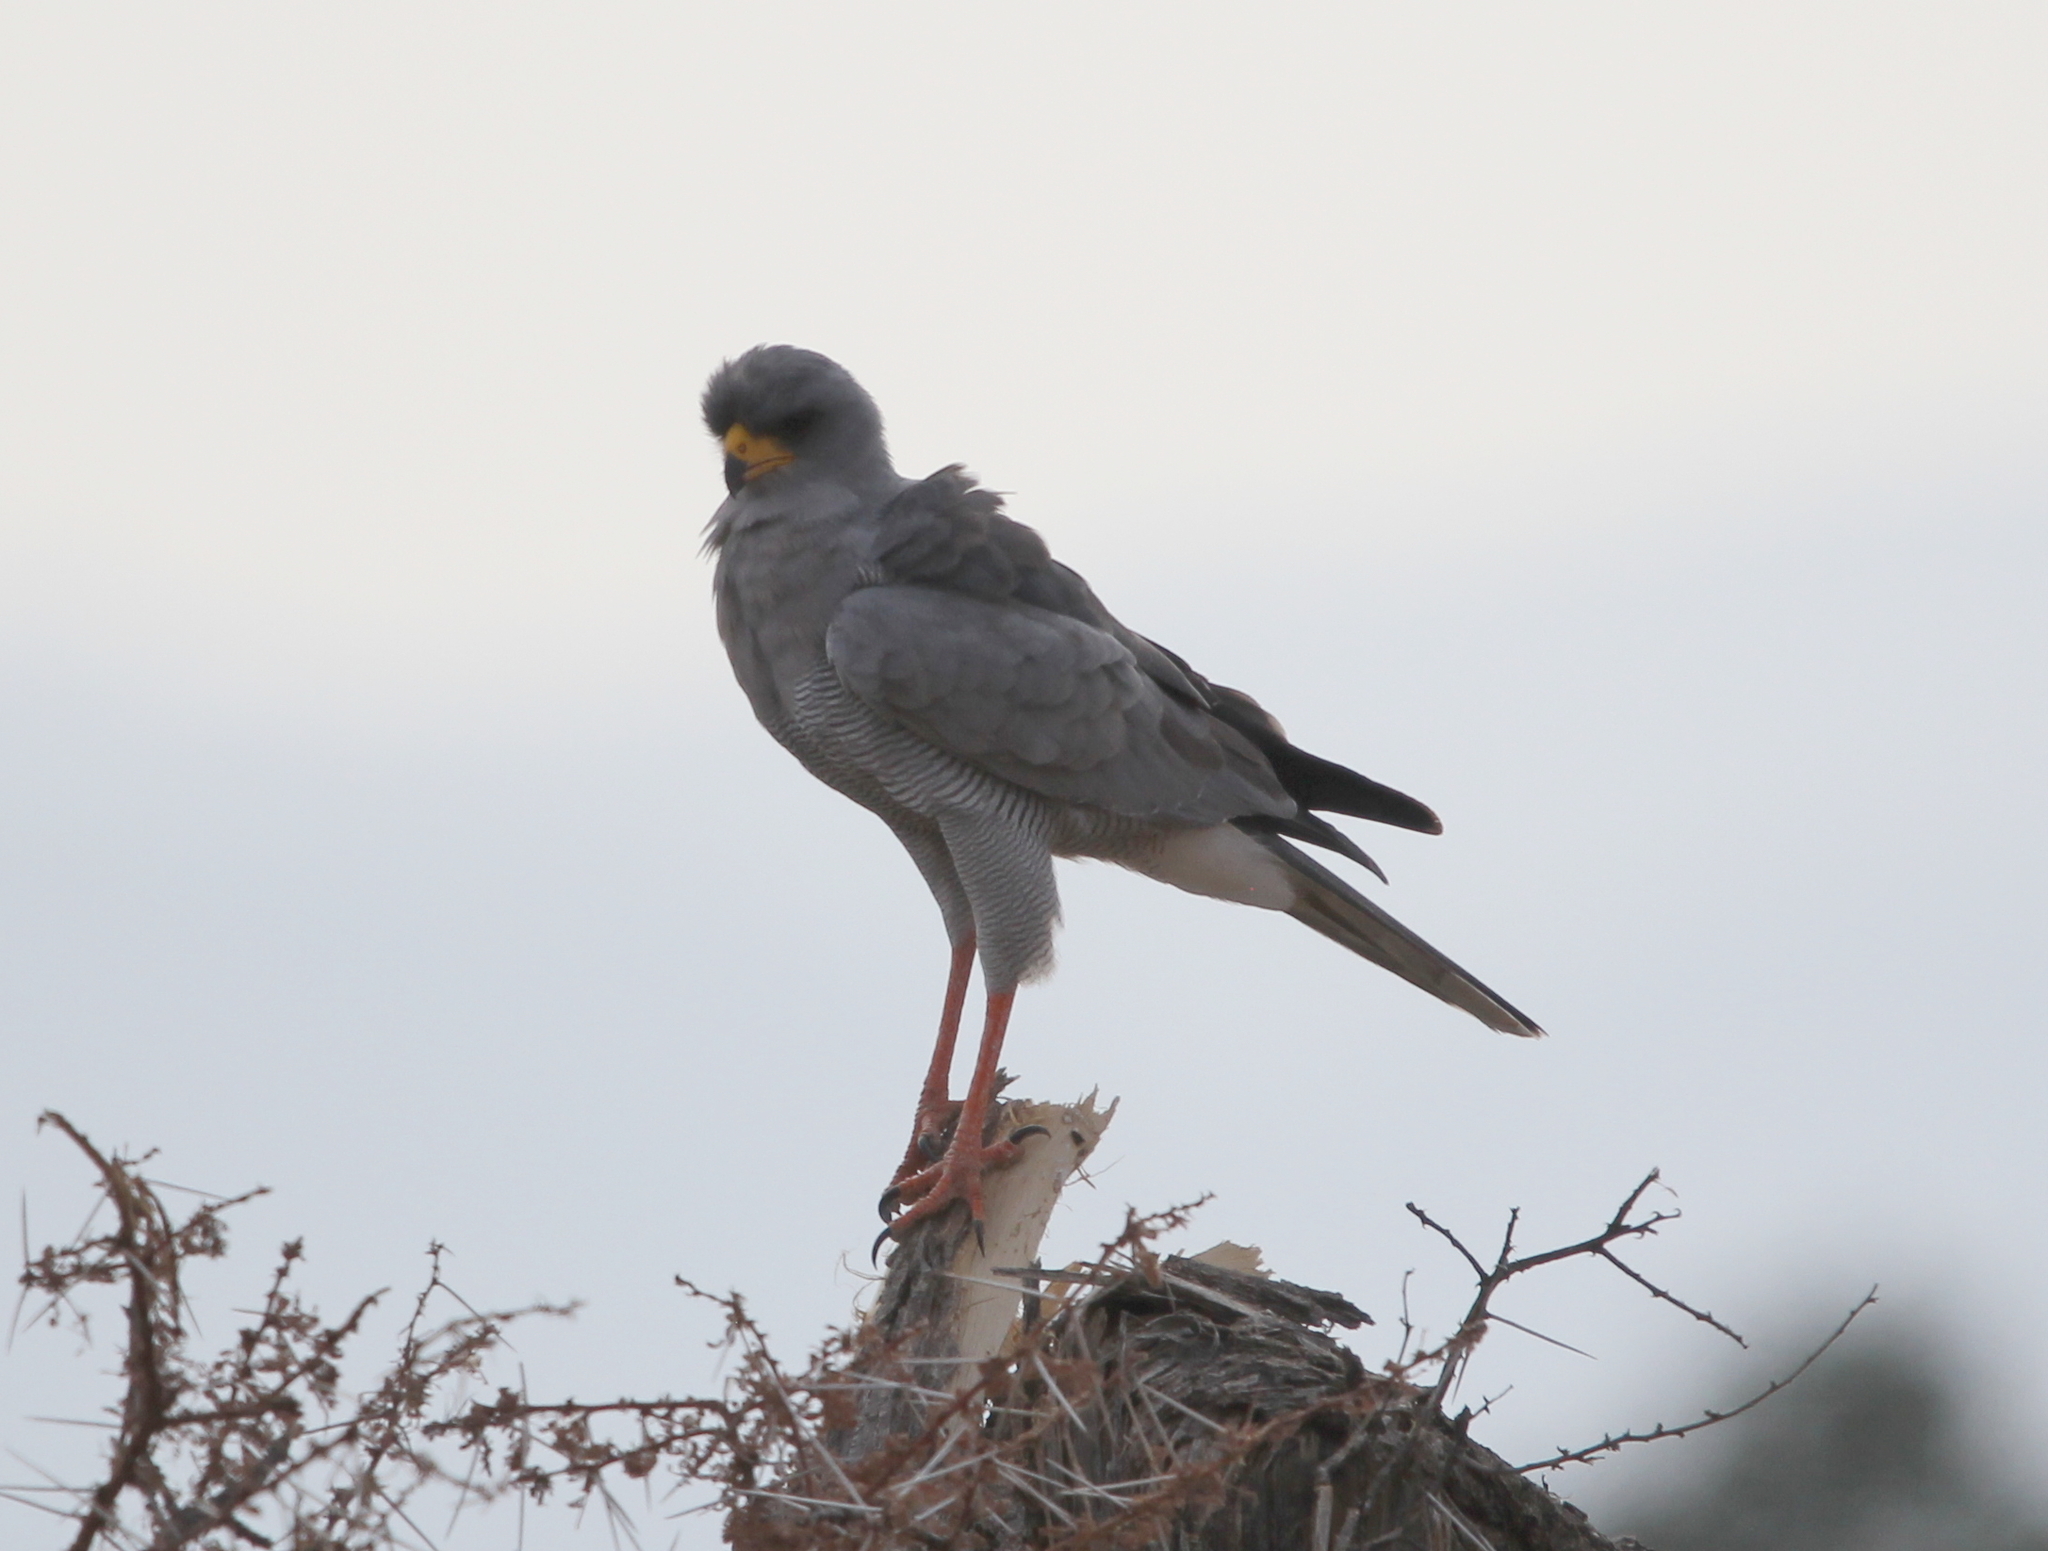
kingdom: Animalia
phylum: Chordata
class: Aves
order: Accipitriformes
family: Accipitridae
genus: Melierax
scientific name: Melierax poliopterus
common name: Eastern chanting goshawk
